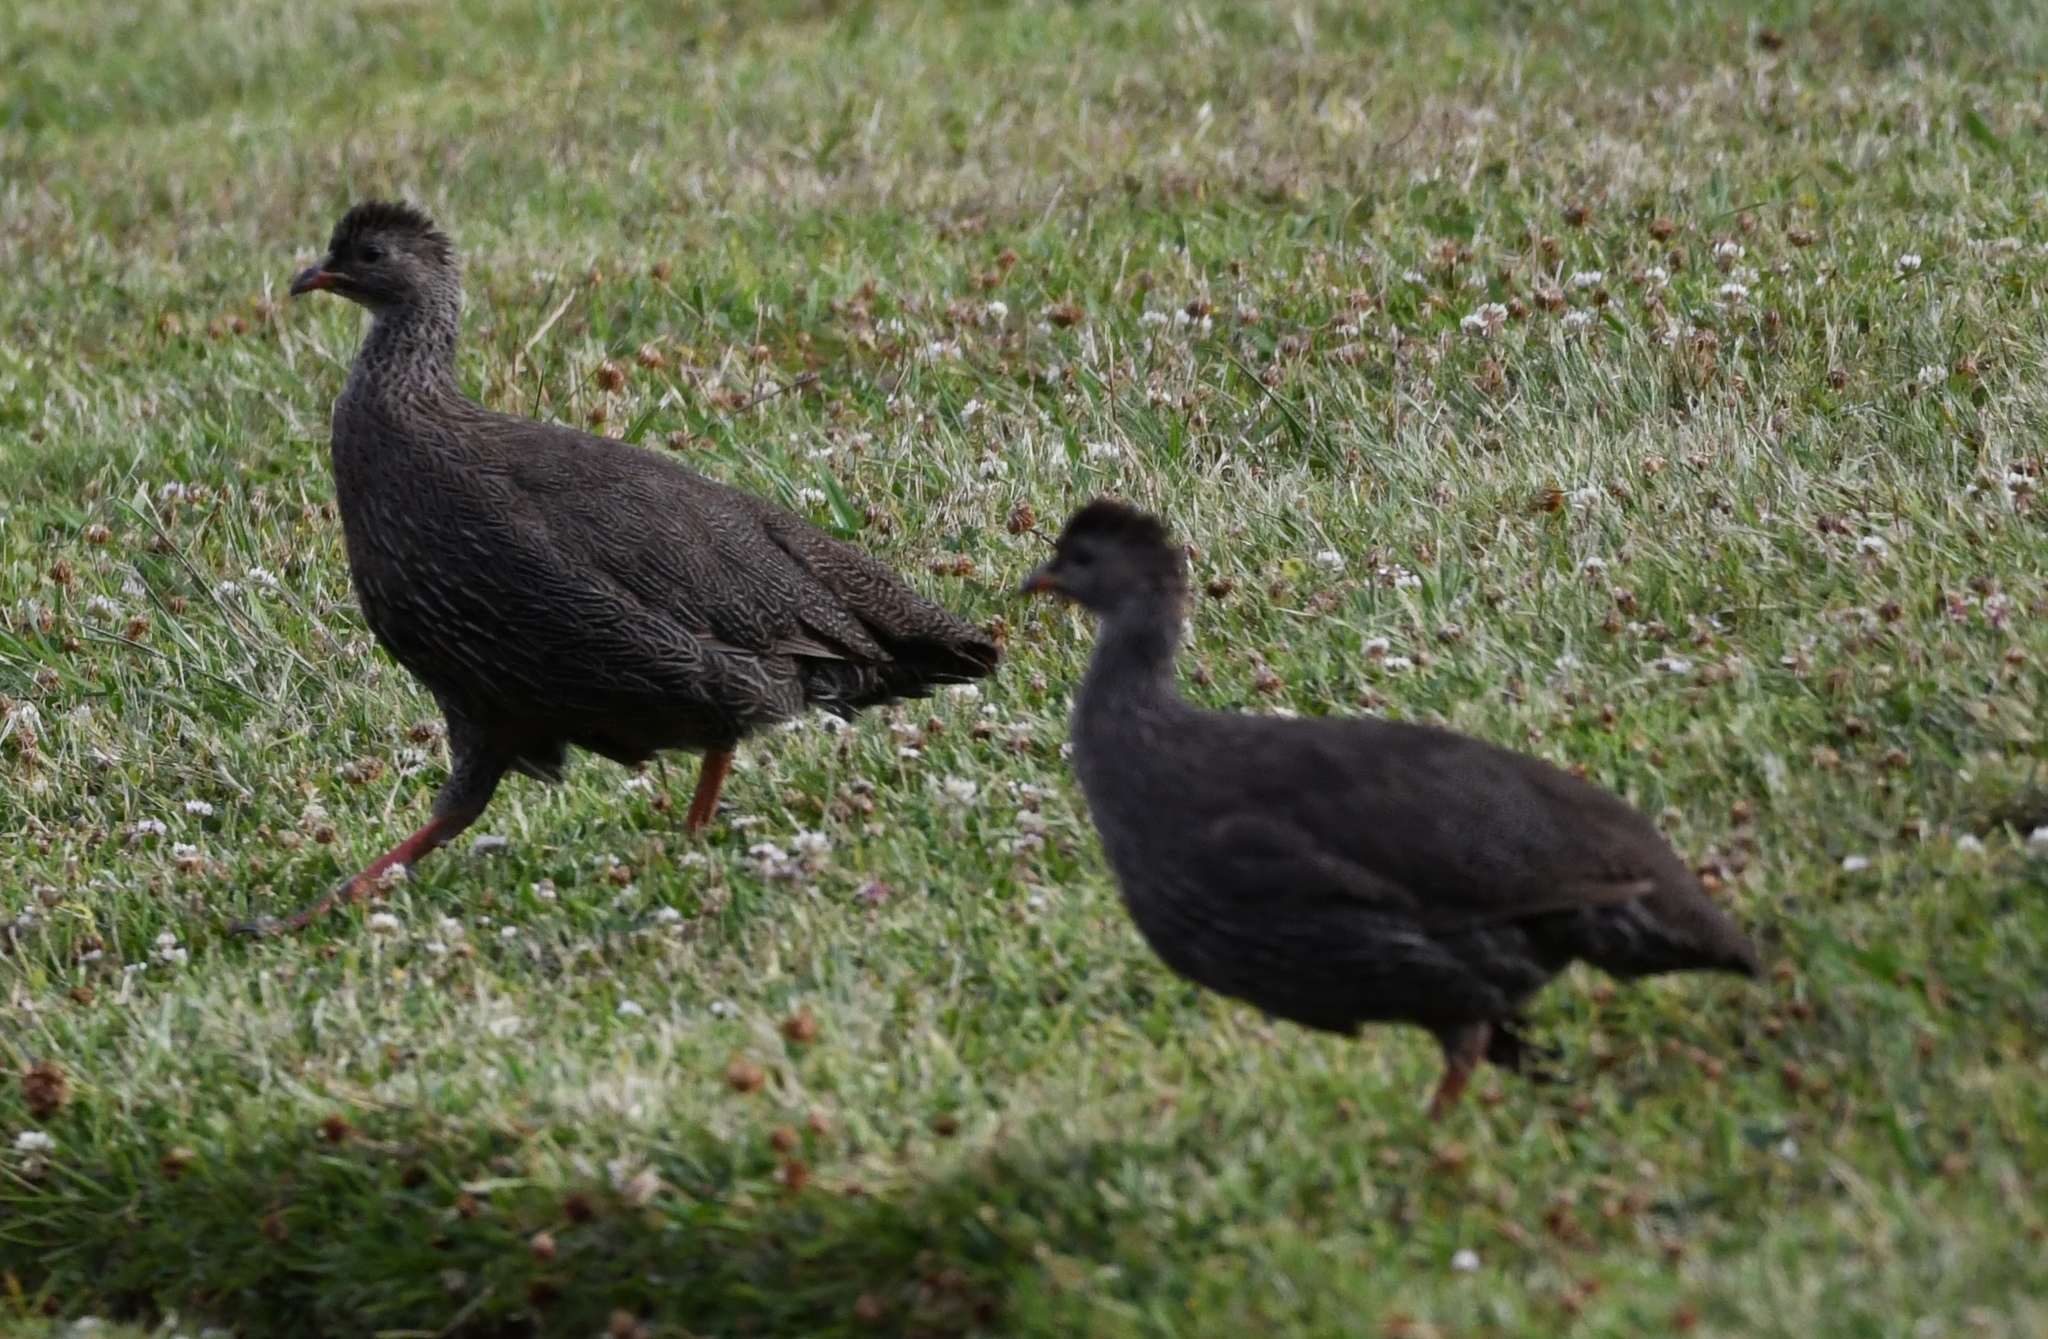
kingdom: Animalia
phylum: Chordata
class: Aves
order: Galliformes
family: Phasianidae
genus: Pternistis
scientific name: Pternistis capensis
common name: Cape spurfowl
